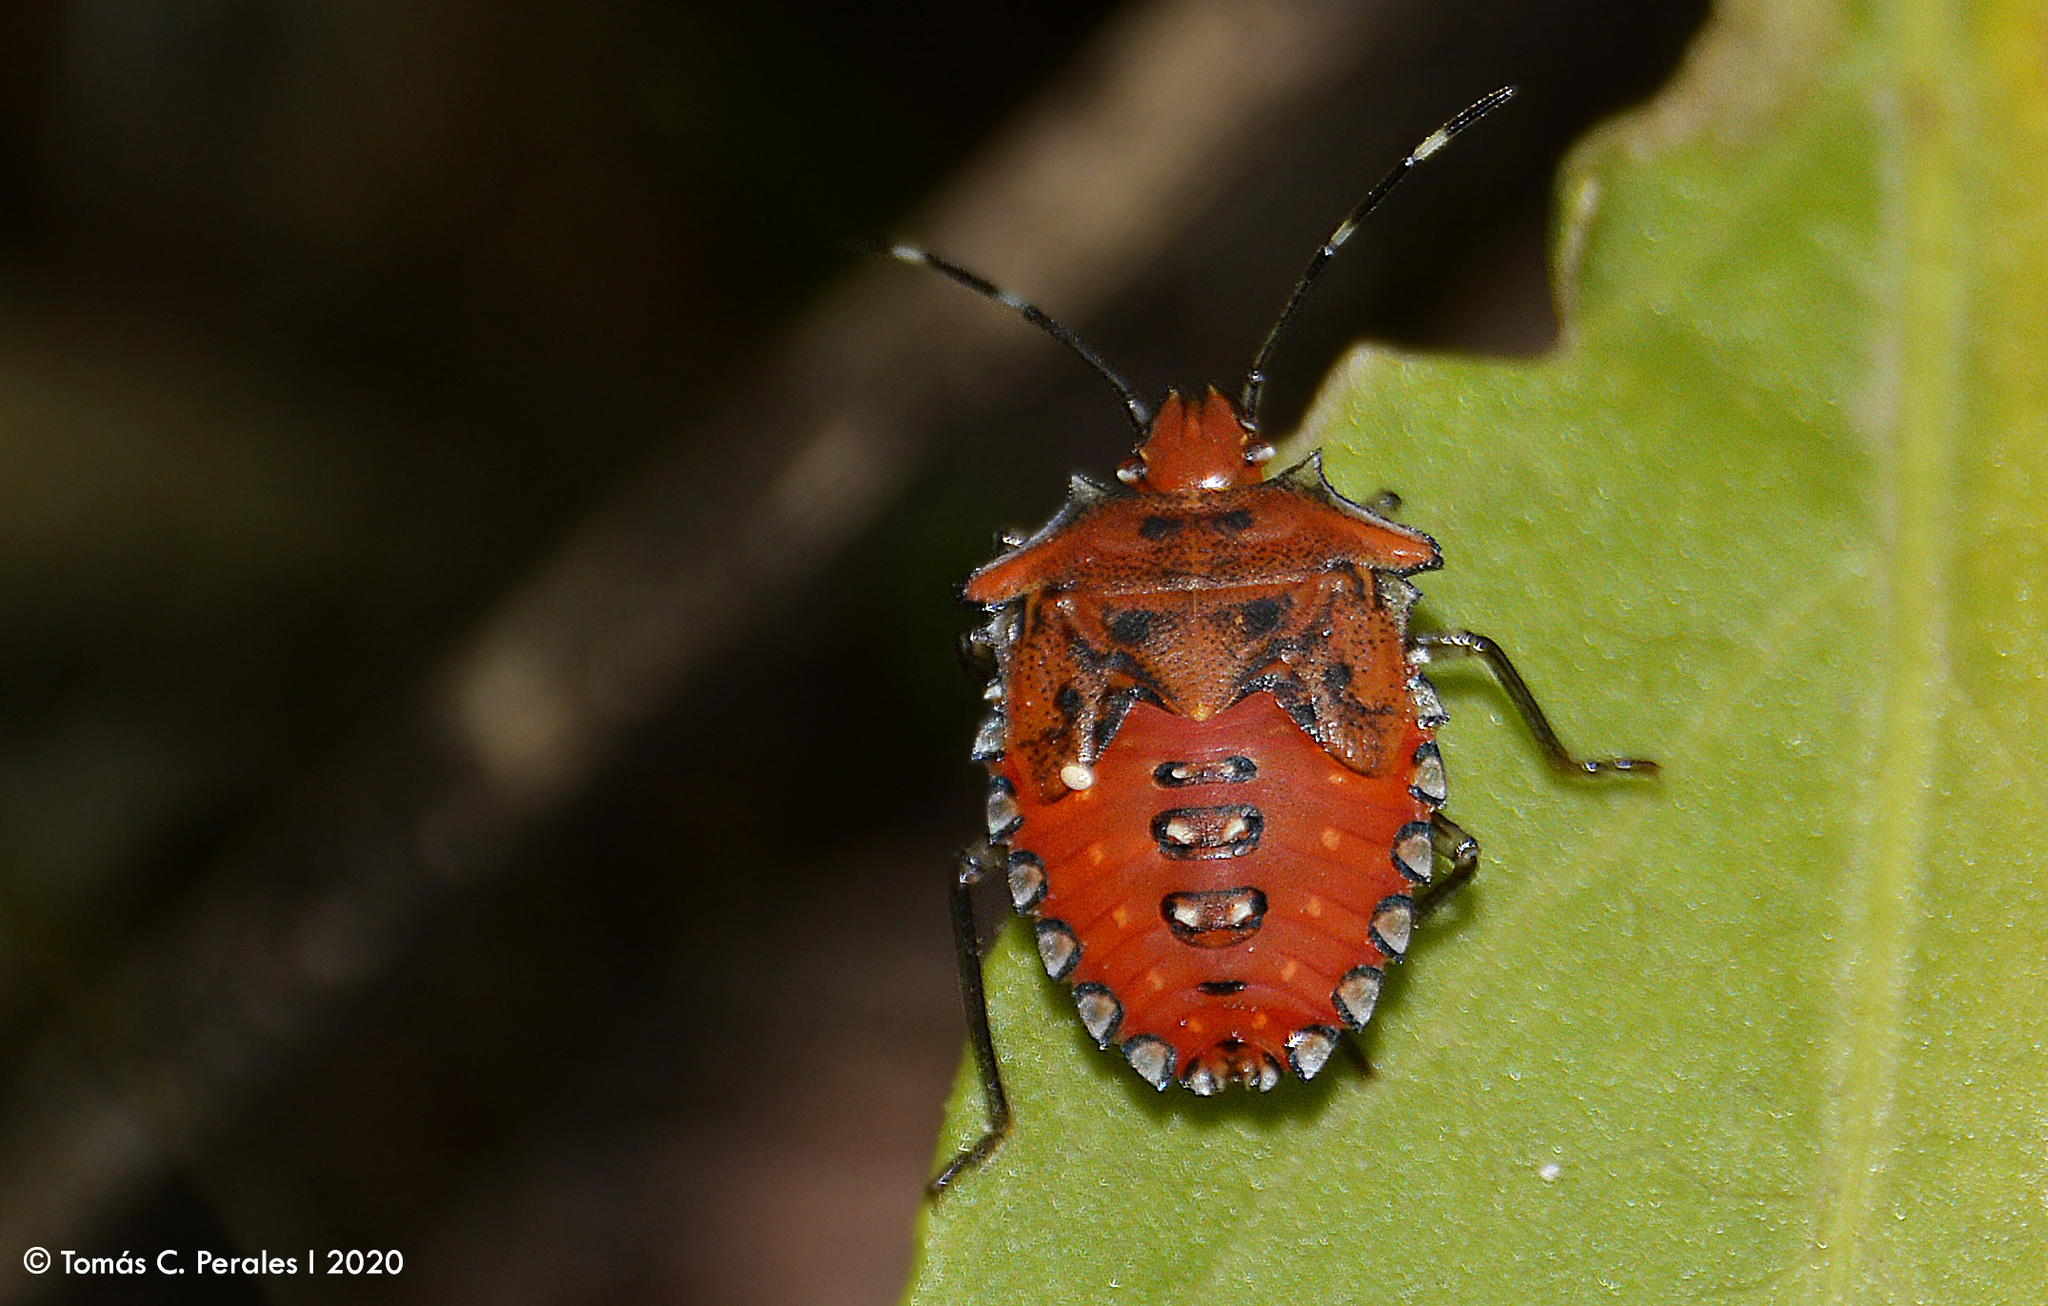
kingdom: Animalia
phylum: Arthropoda
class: Insecta
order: Hemiptera
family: Pentatomidae
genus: Arvelius
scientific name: Arvelius albopunctatus
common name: Tomato stink bug
